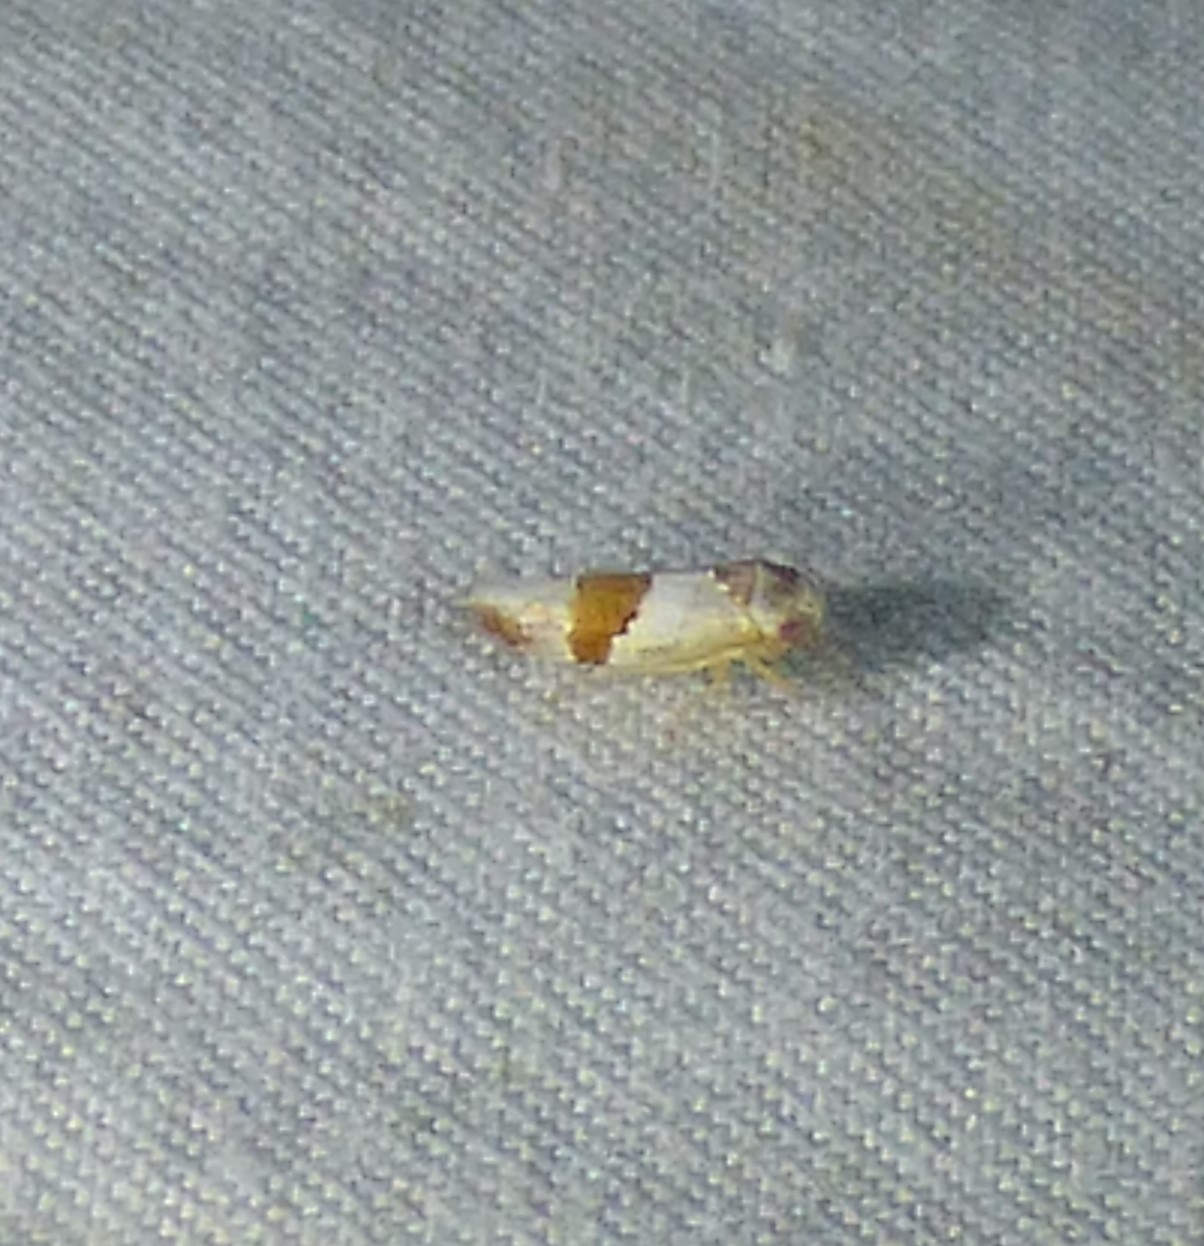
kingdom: Animalia
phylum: Arthropoda
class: Insecta
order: Hemiptera
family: Cicadellidae
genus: Norvellina
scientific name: Norvellina seminuda
